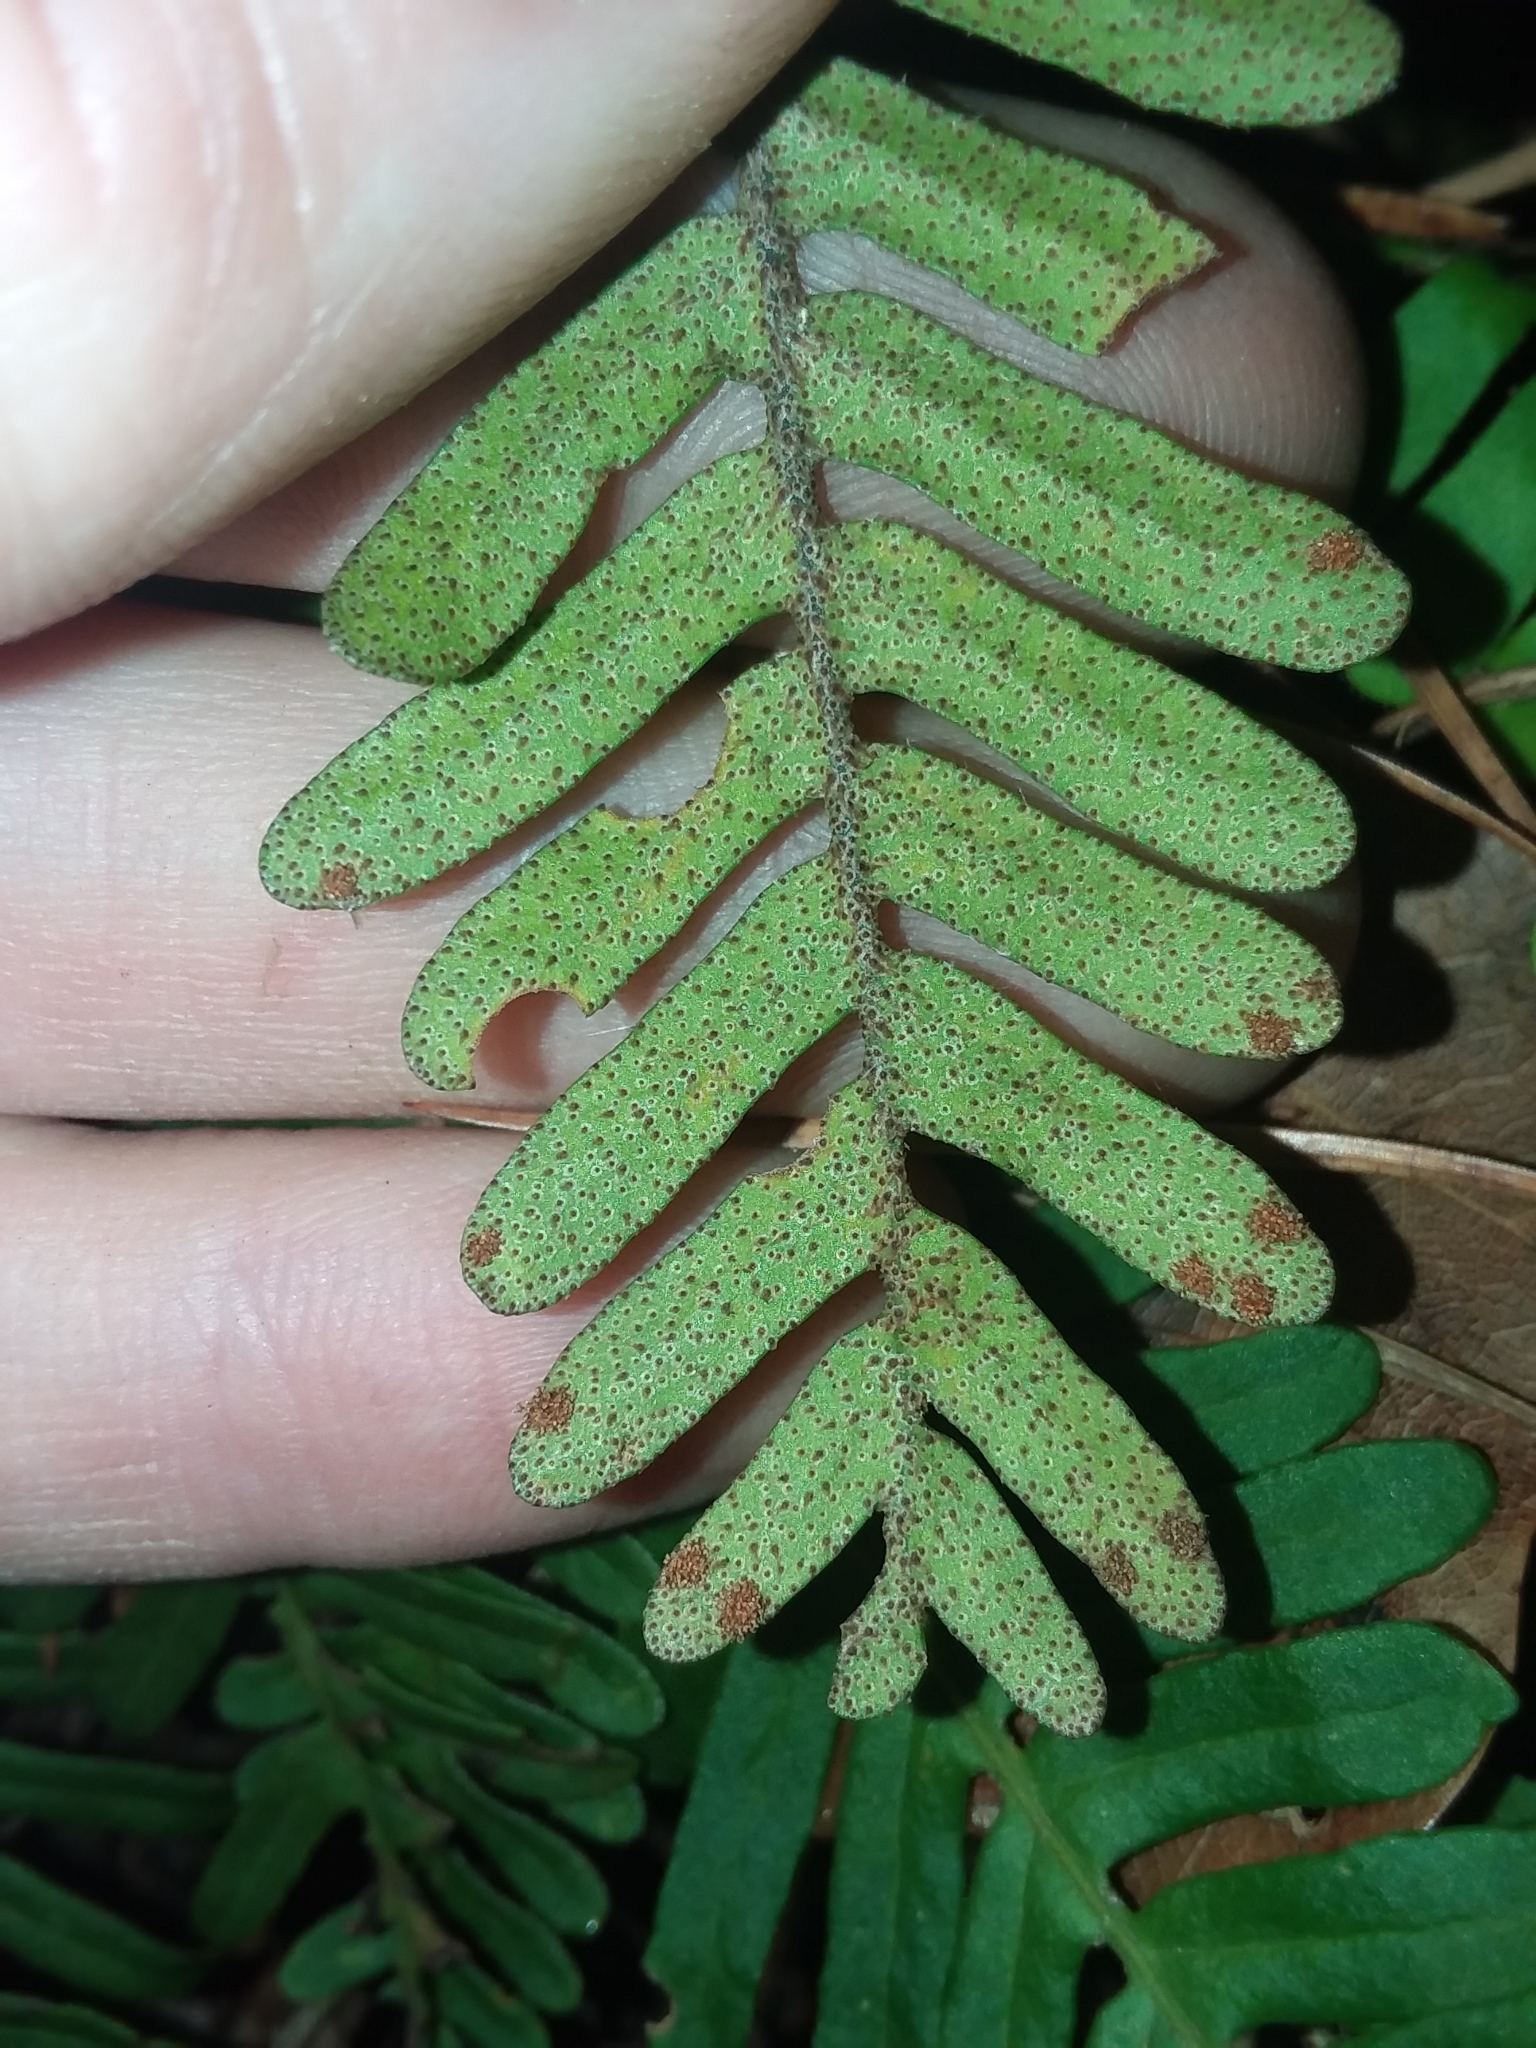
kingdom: Plantae
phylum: Tracheophyta
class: Polypodiopsida
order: Polypodiales
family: Polypodiaceae
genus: Pleopeltis
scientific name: Pleopeltis michauxiana
